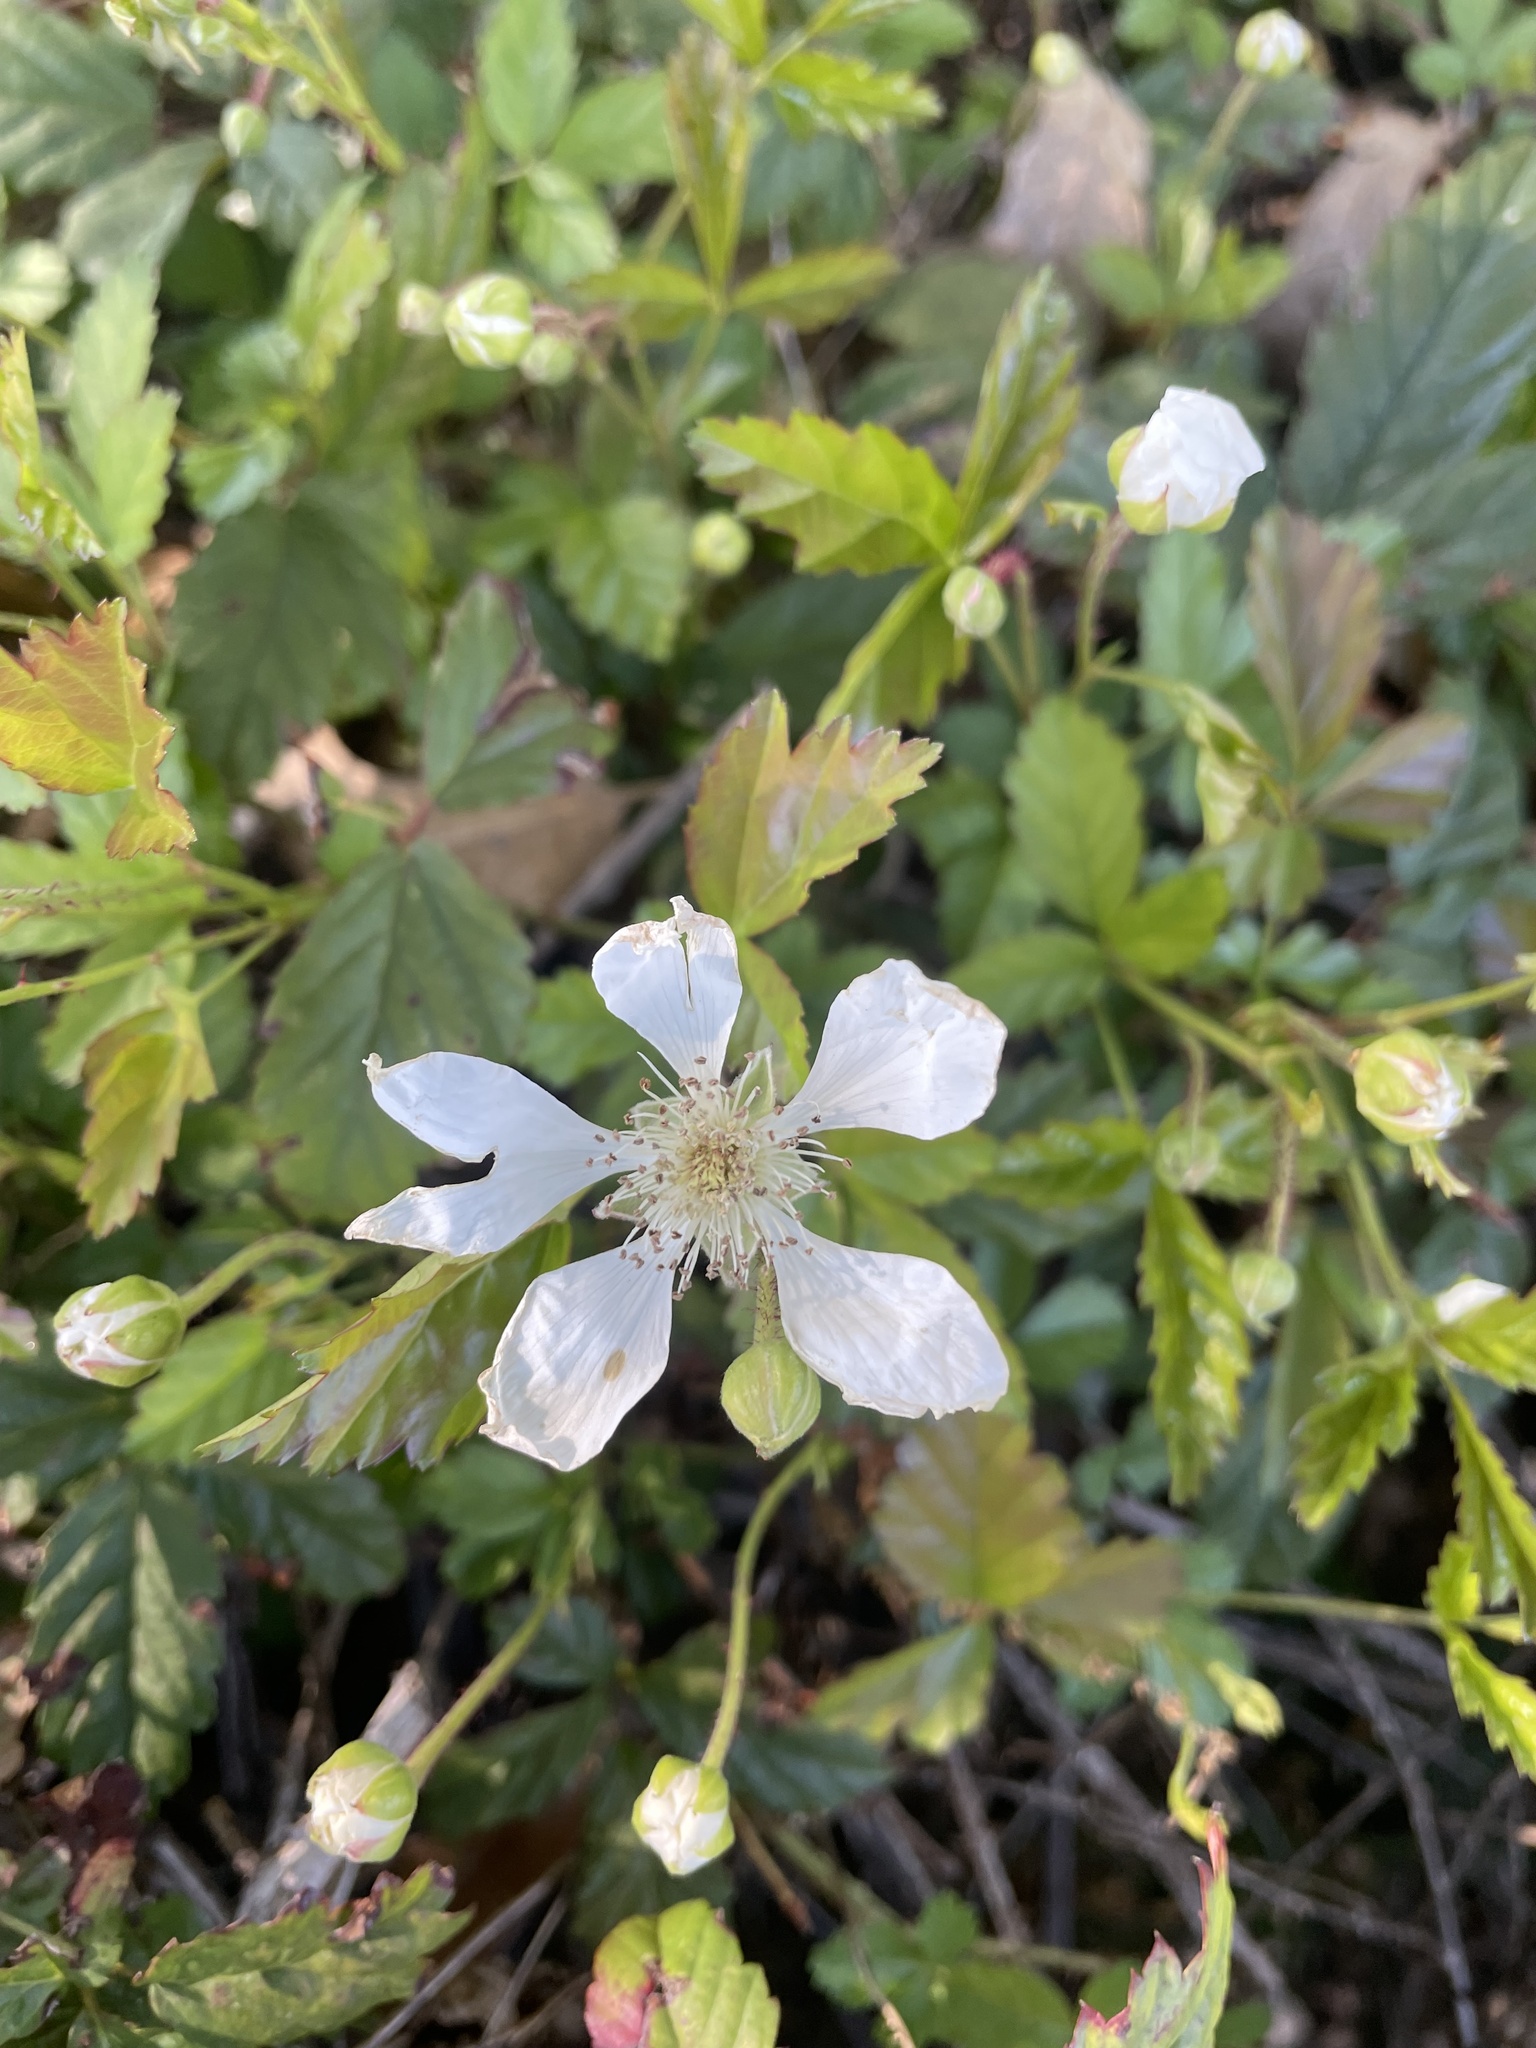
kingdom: Plantae
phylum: Tracheophyta
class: Magnoliopsida
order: Rosales
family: Rosaceae
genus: Rubus
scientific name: Rubus trivialis
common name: Southern dewberry
